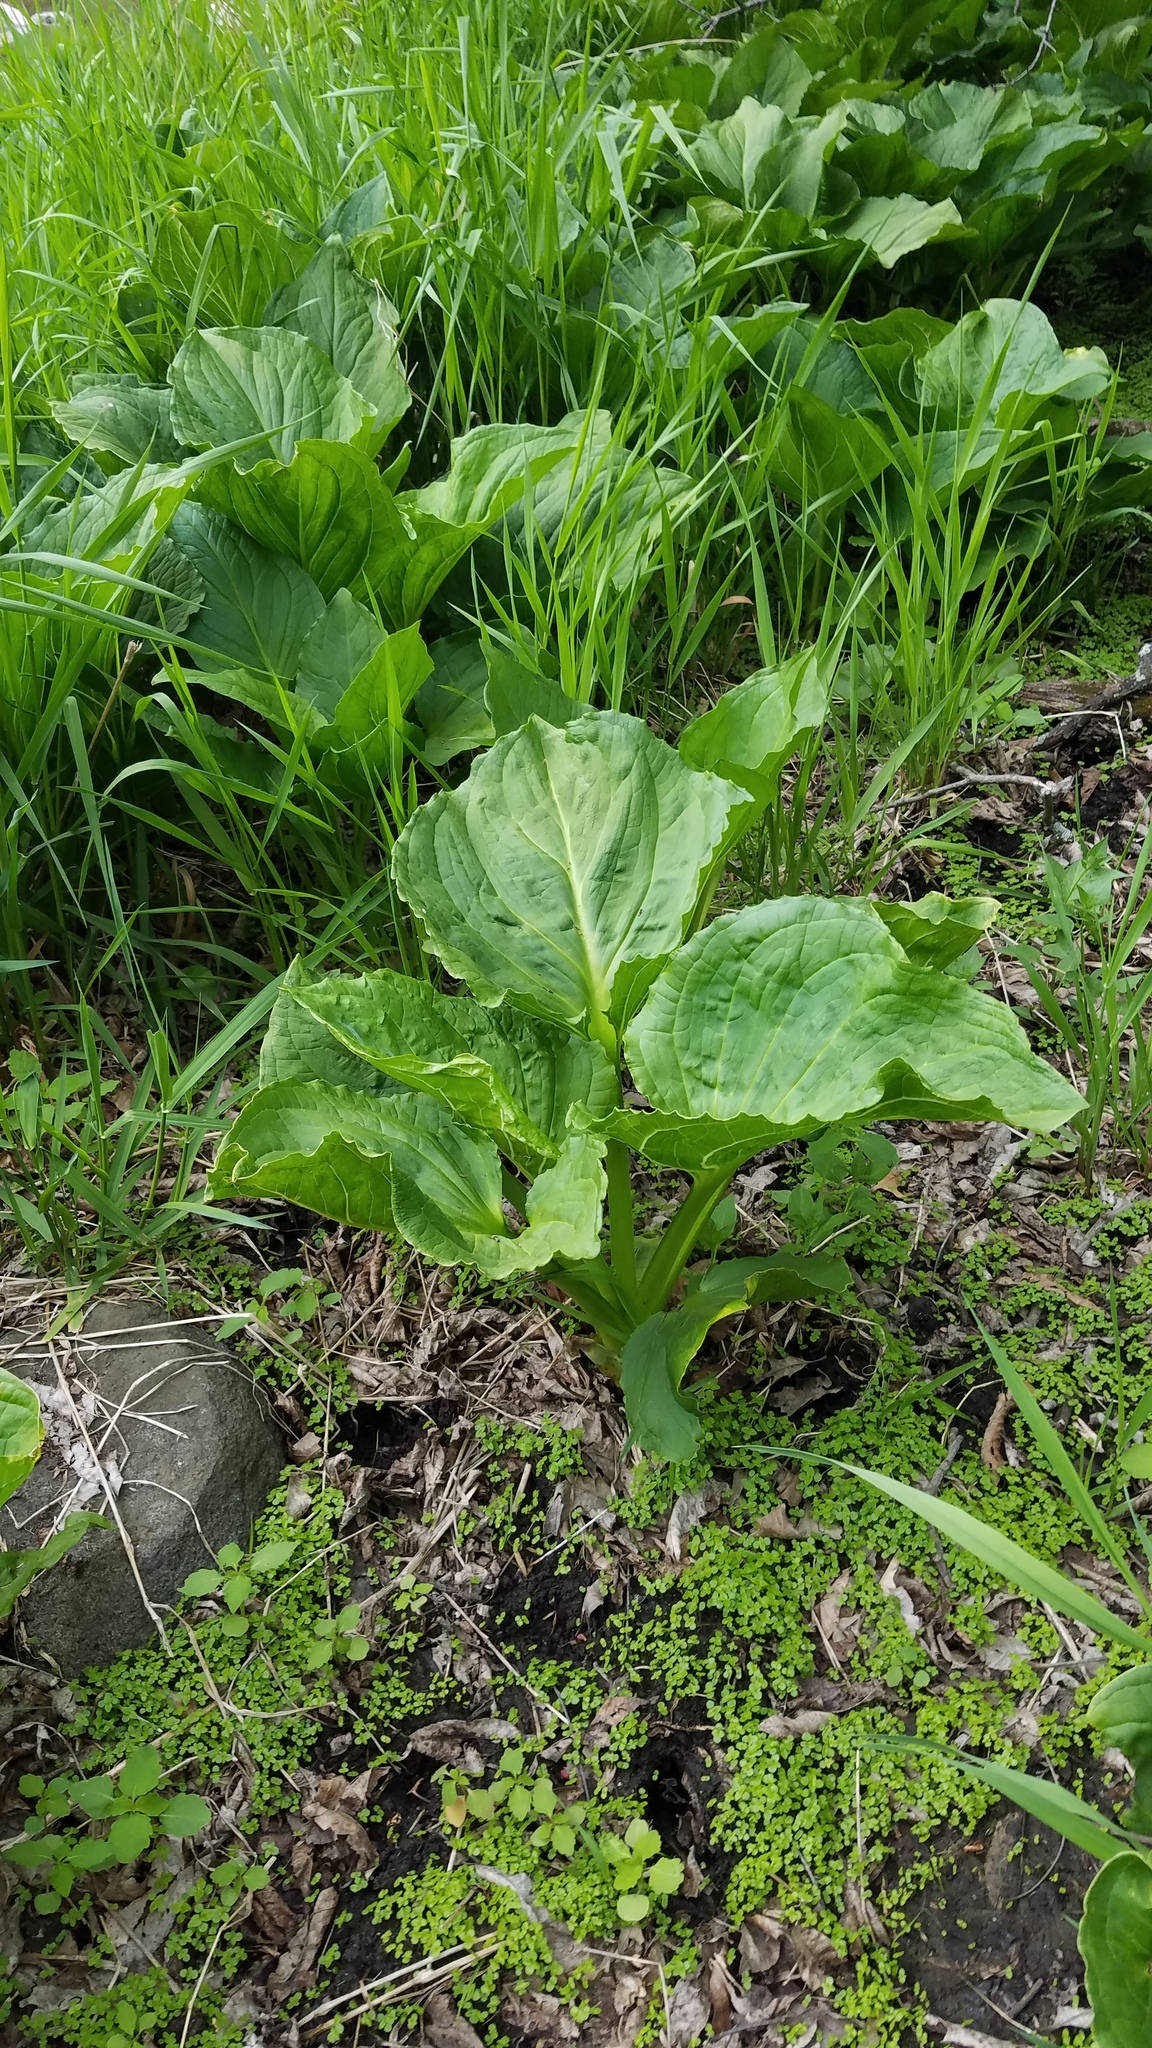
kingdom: Plantae
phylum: Tracheophyta
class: Liliopsida
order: Alismatales
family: Araceae
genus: Symplocarpus
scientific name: Symplocarpus foetidus
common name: Eastern skunk cabbage
